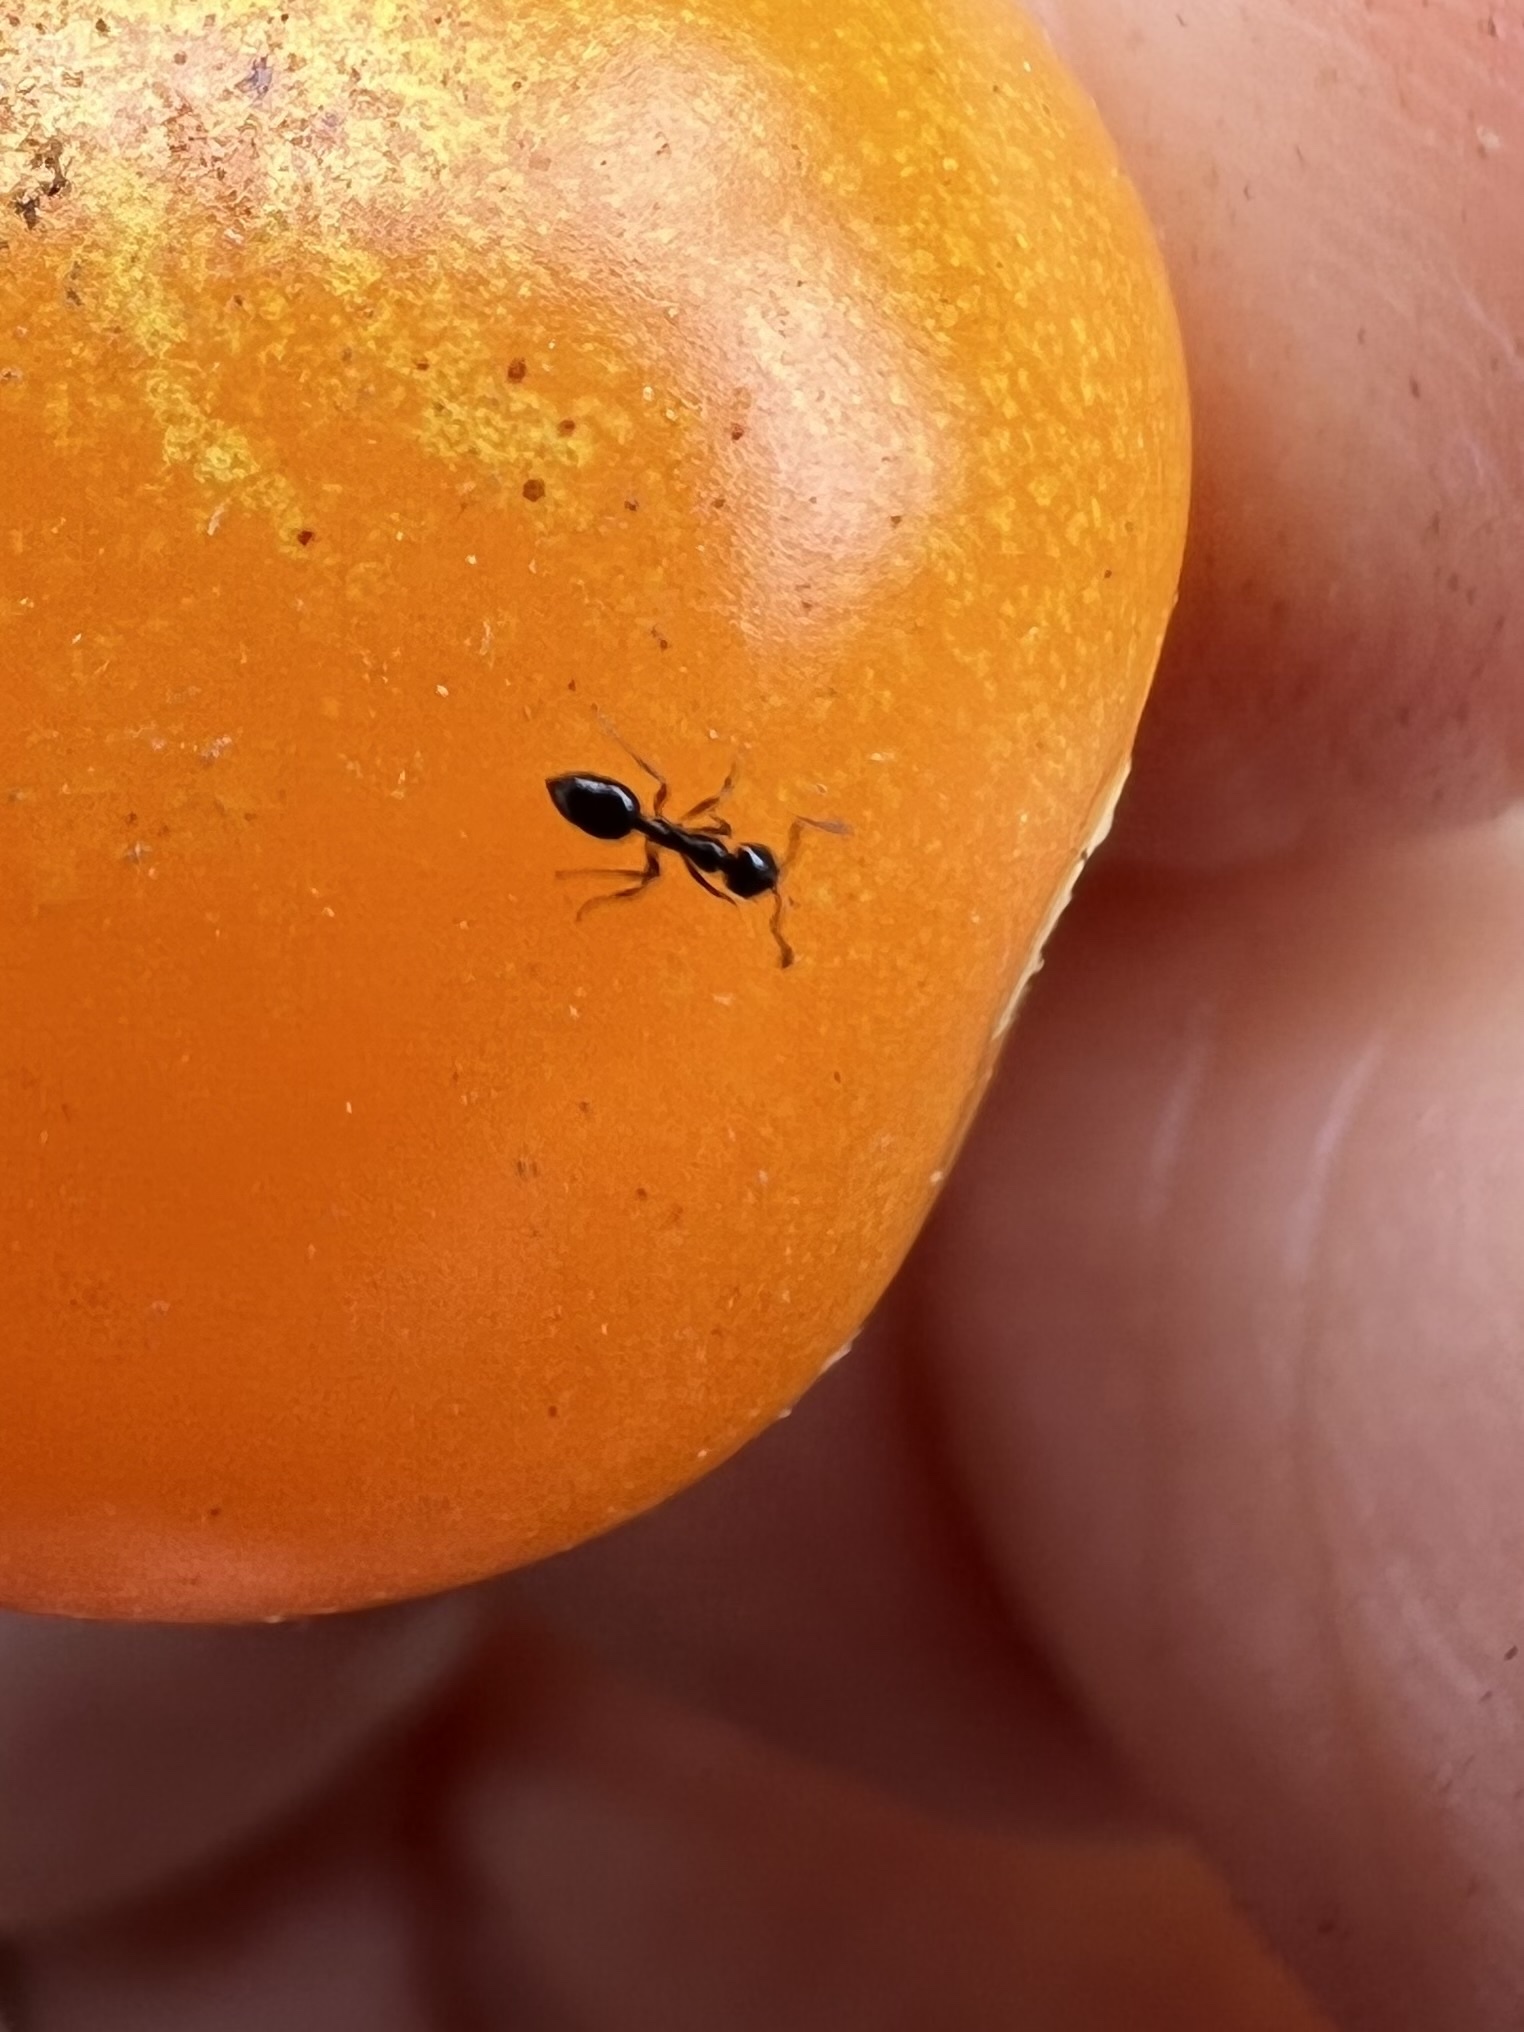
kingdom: Animalia
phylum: Arthropoda
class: Insecta
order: Hymenoptera
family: Formicidae
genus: Monomorium
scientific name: Monomorium ergatogyna
